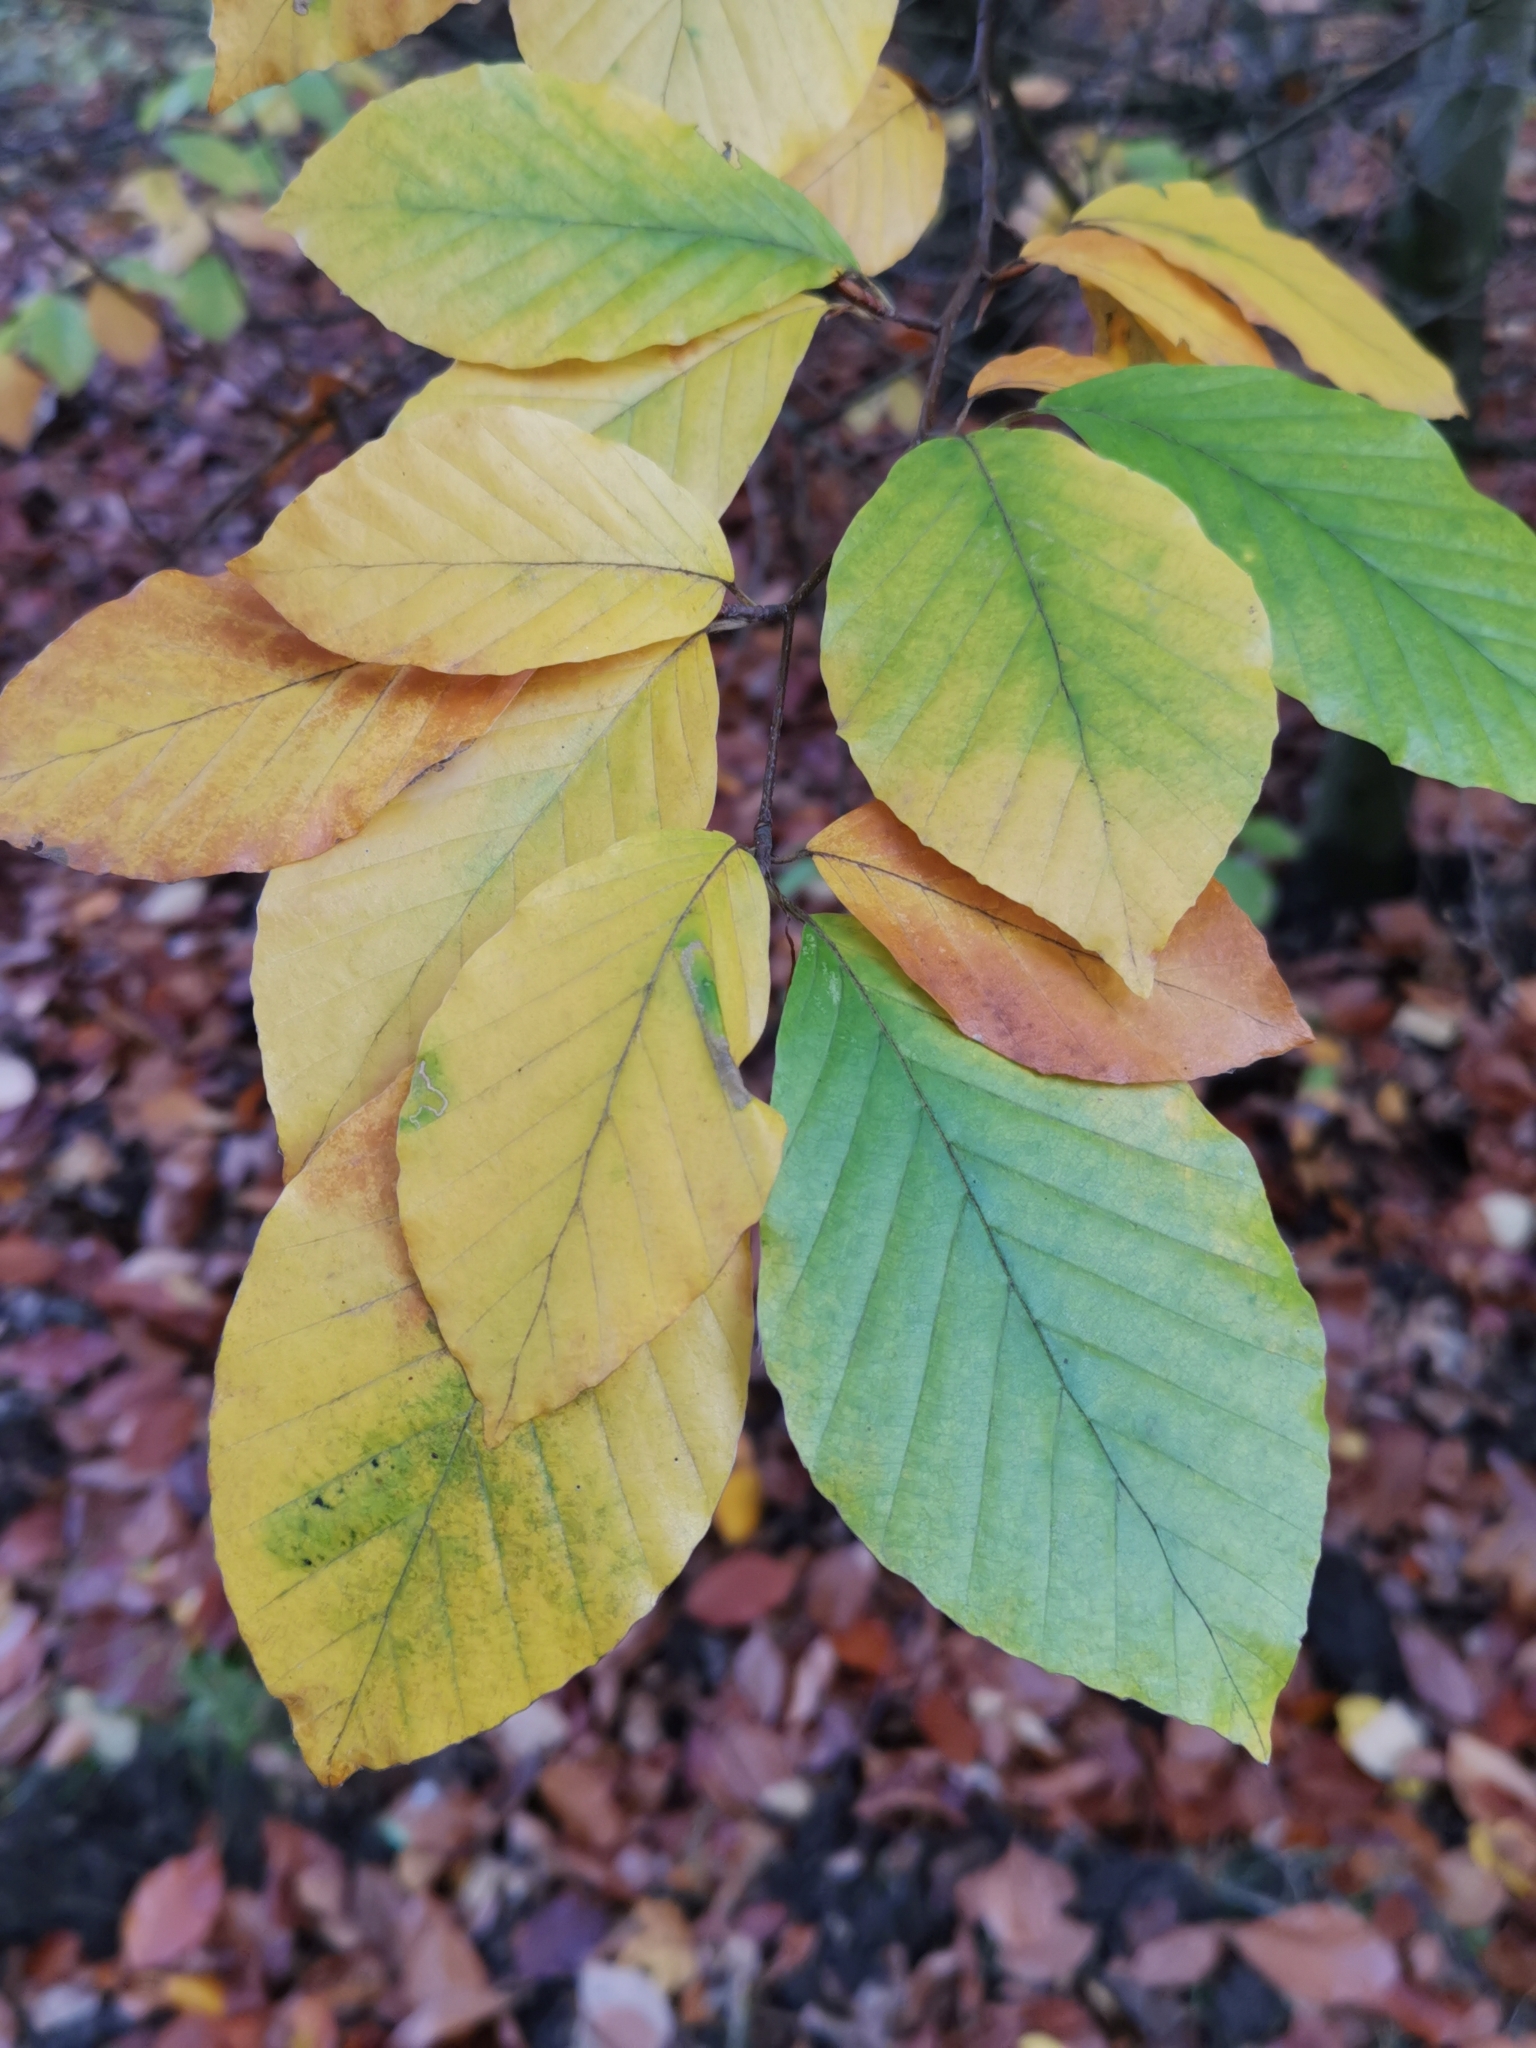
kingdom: Plantae
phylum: Tracheophyta
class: Magnoliopsida
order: Fagales
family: Fagaceae
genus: Fagus
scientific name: Fagus sylvatica
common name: Beech
